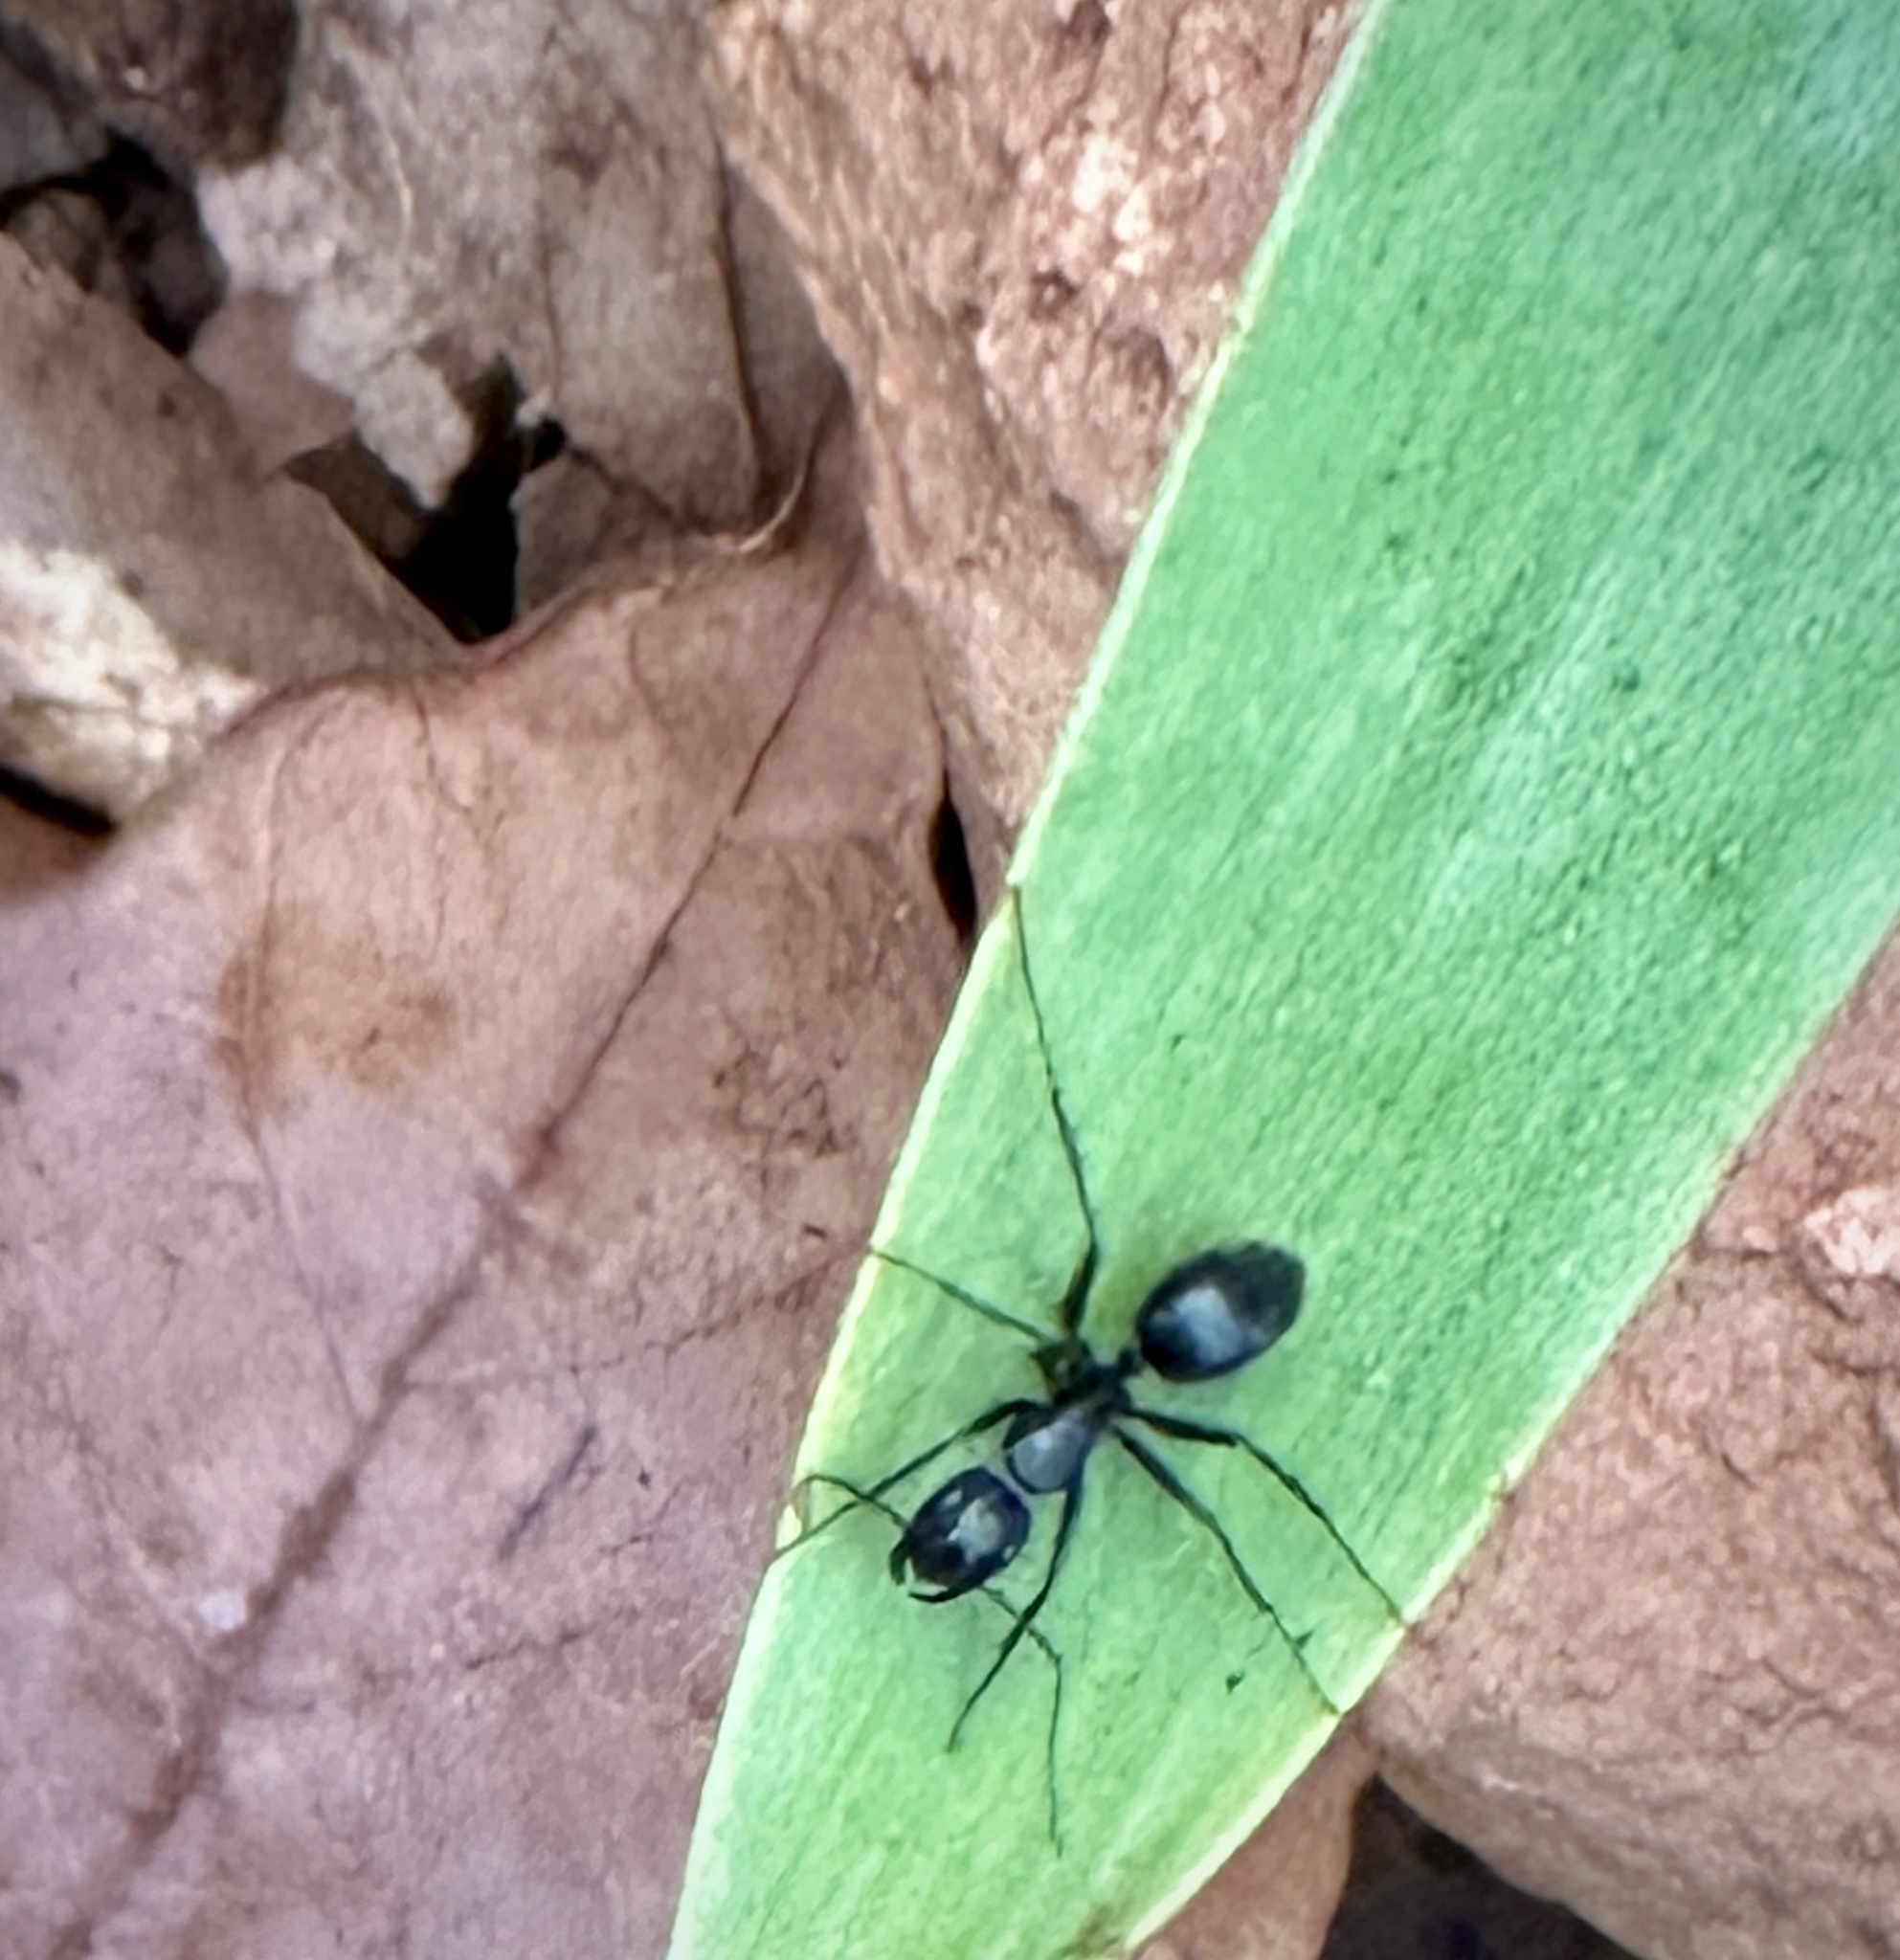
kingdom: Animalia
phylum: Arthropoda
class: Insecta
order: Hymenoptera
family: Formicidae
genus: Camponotus
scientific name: Camponotus pennsylvanicus
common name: Black carpenter ant
